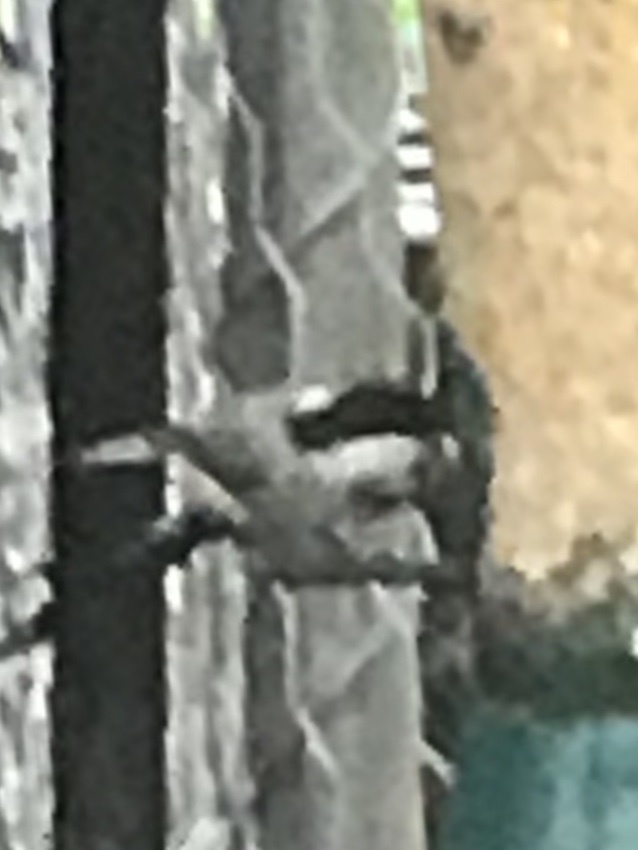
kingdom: Animalia
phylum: Chordata
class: Aves
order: Passeriformes
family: Paridae
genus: Poecile
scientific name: Poecile carolinensis
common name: Carolina chickadee
